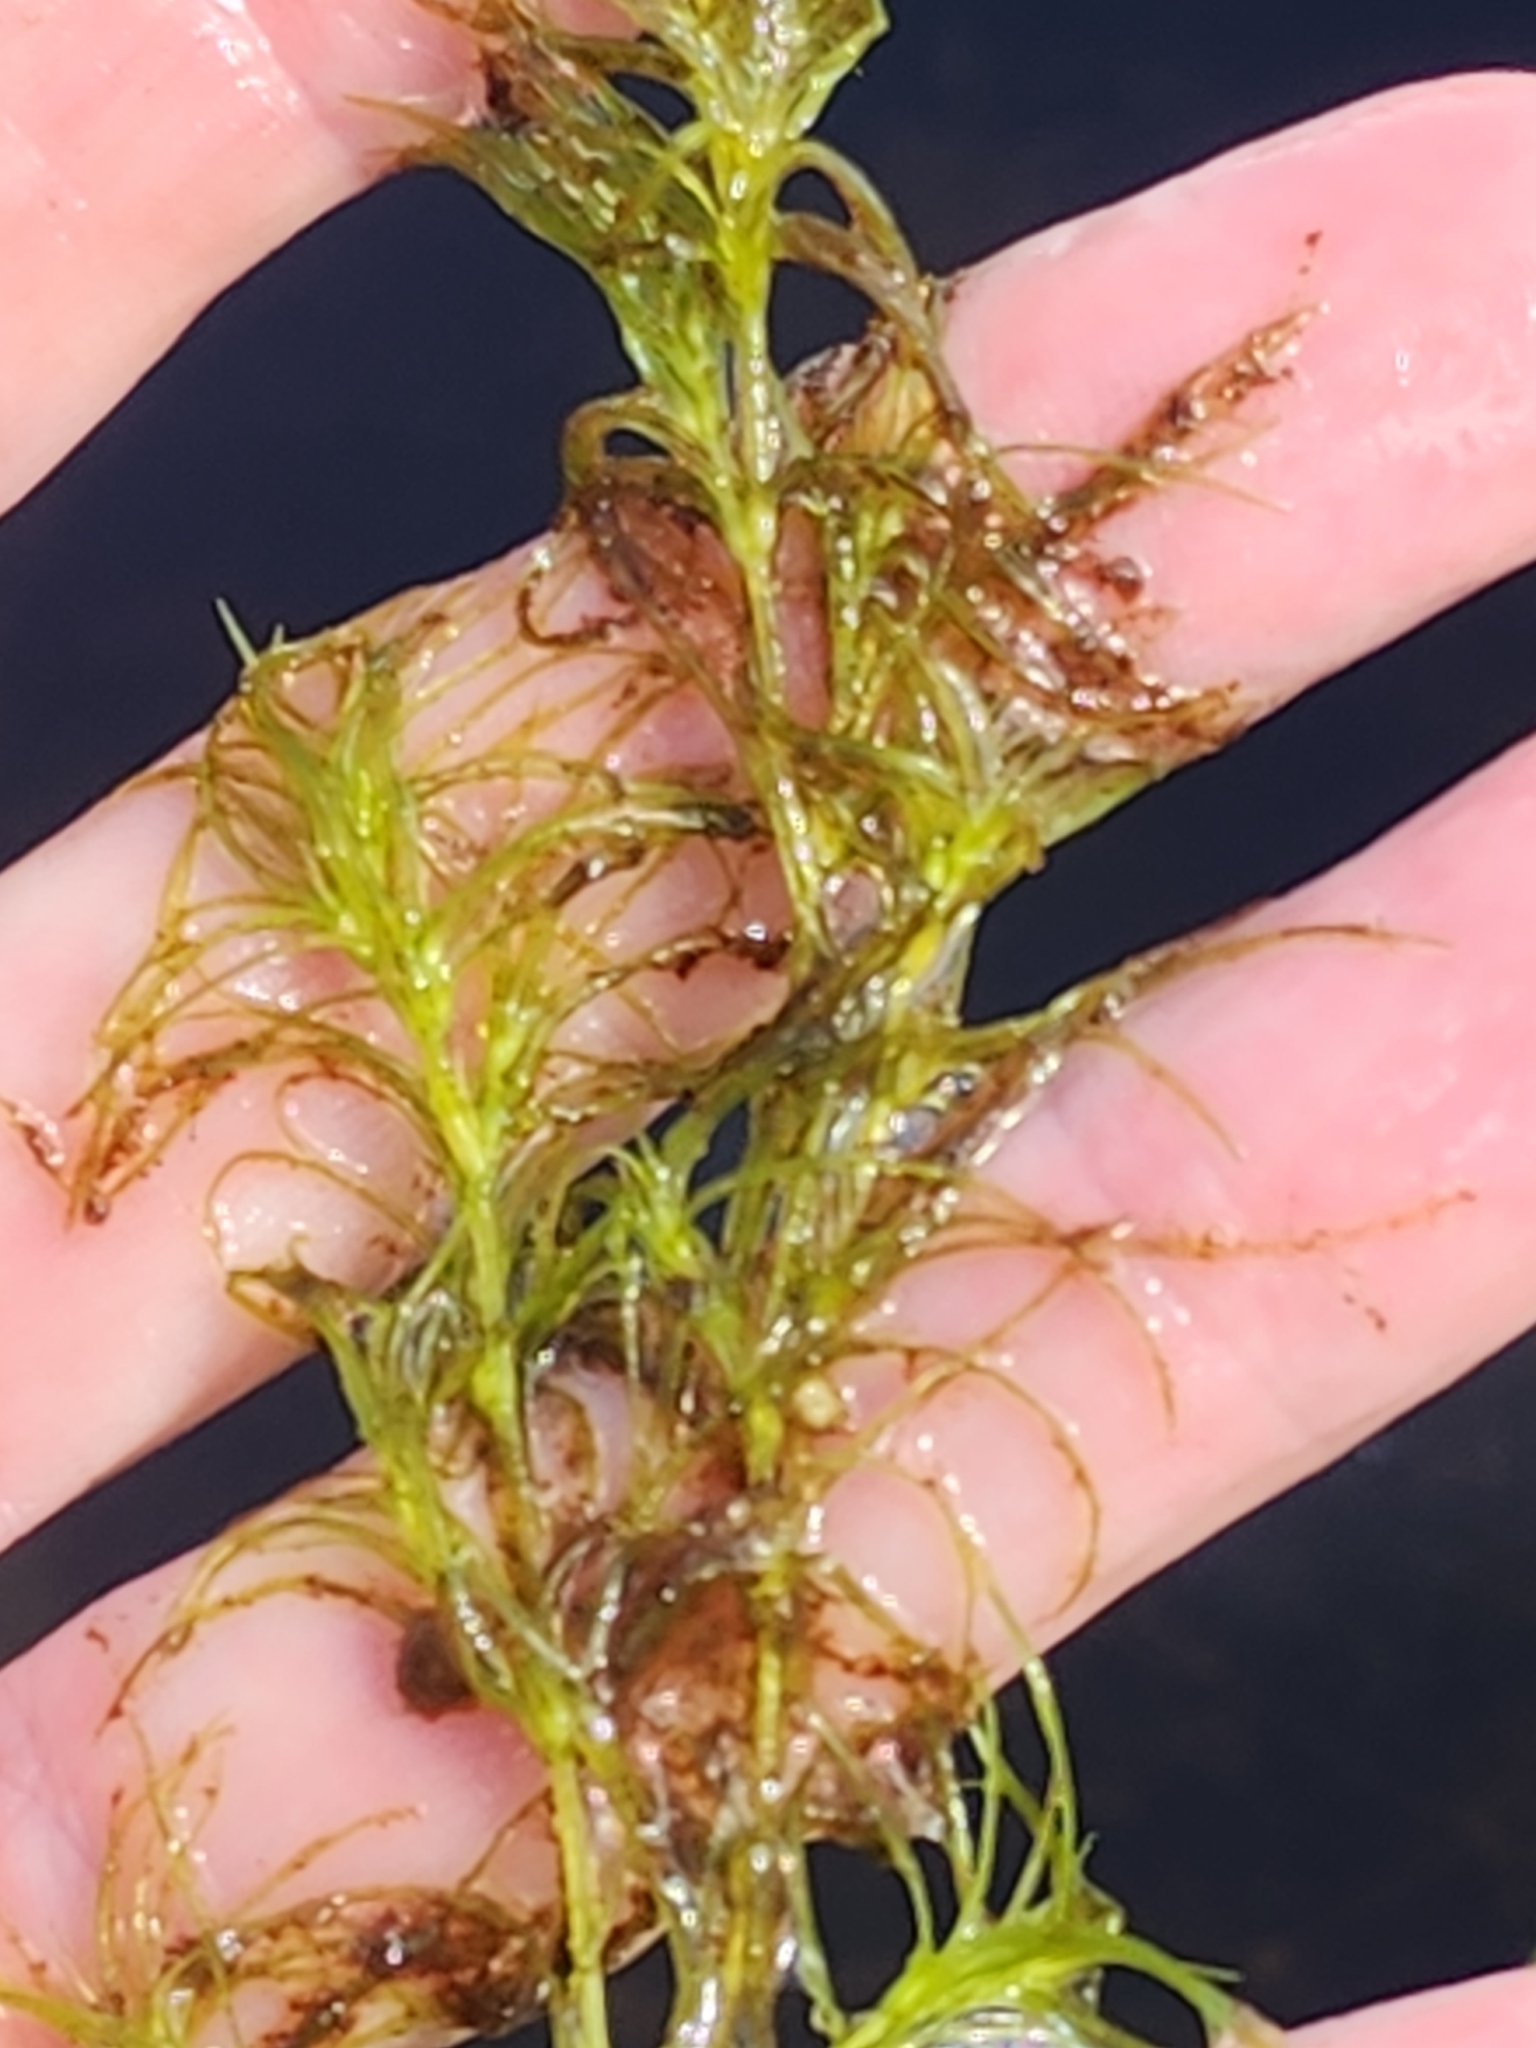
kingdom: Plantae
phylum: Tracheophyta
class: Liliopsida
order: Alismatales
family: Hydrocharitaceae
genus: Najas
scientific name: Najas flexilis
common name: Slender naiad
